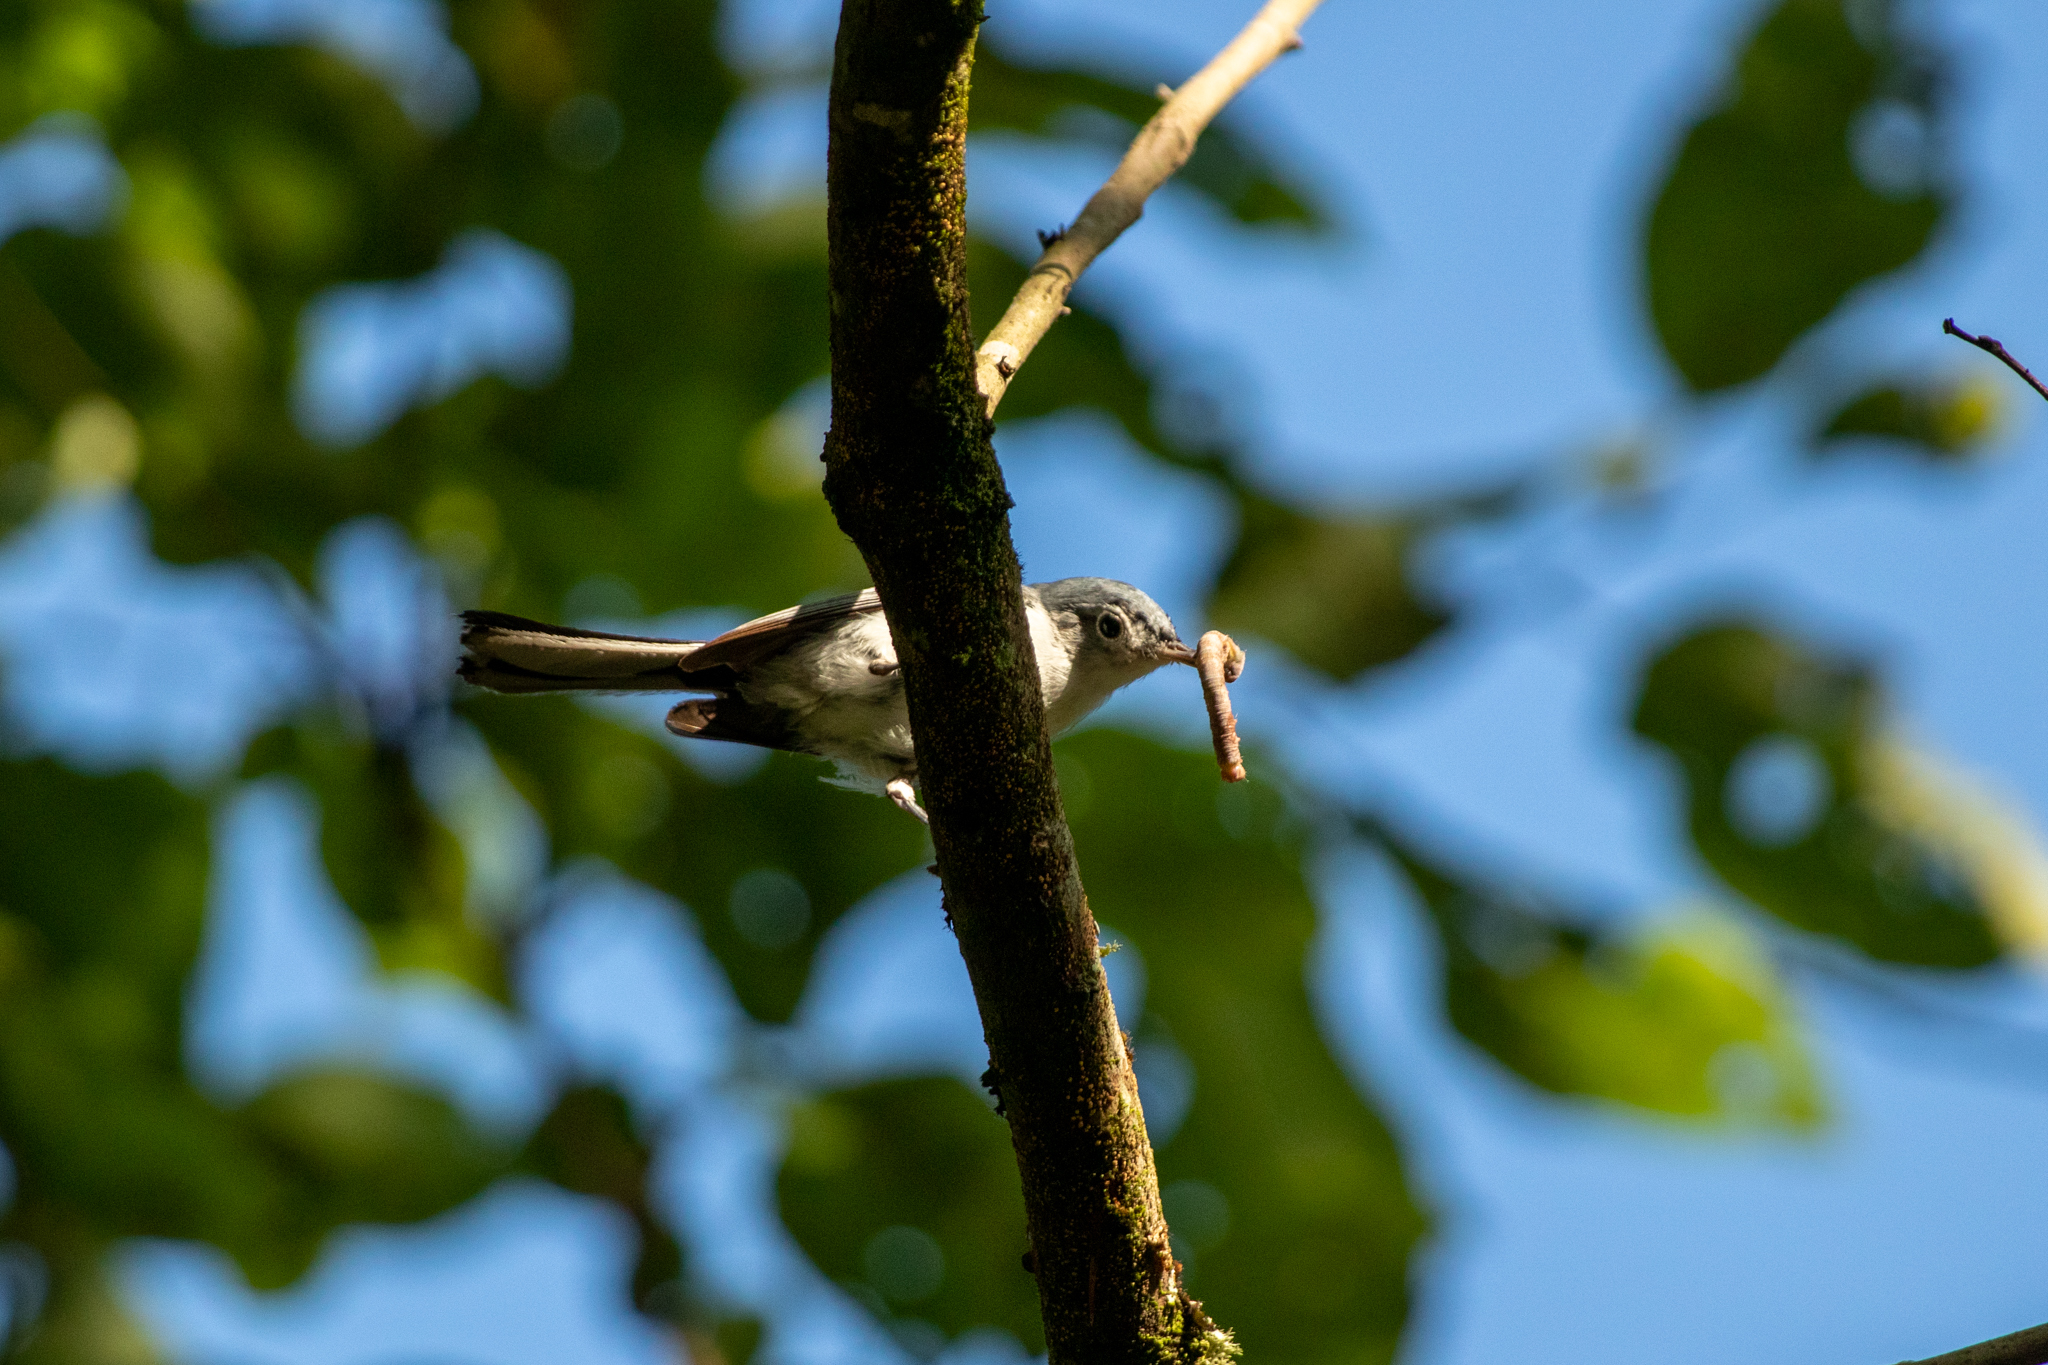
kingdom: Animalia
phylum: Chordata
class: Aves
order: Passeriformes
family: Polioptilidae
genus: Polioptila
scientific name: Polioptila caerulea
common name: Blue-gray gnatcatcher
